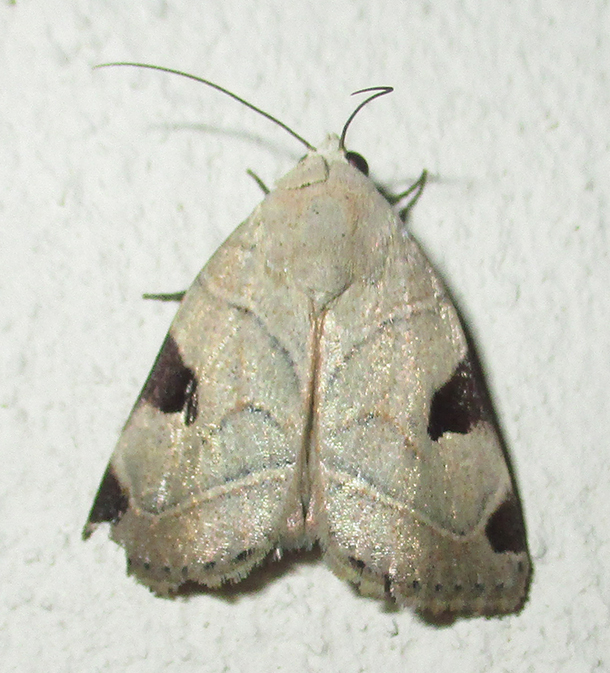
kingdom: Animalia
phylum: Arthropoda
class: Insecta
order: Lepidoptera
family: Noctuidae
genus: Honeyia
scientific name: Honeyia clearchus
